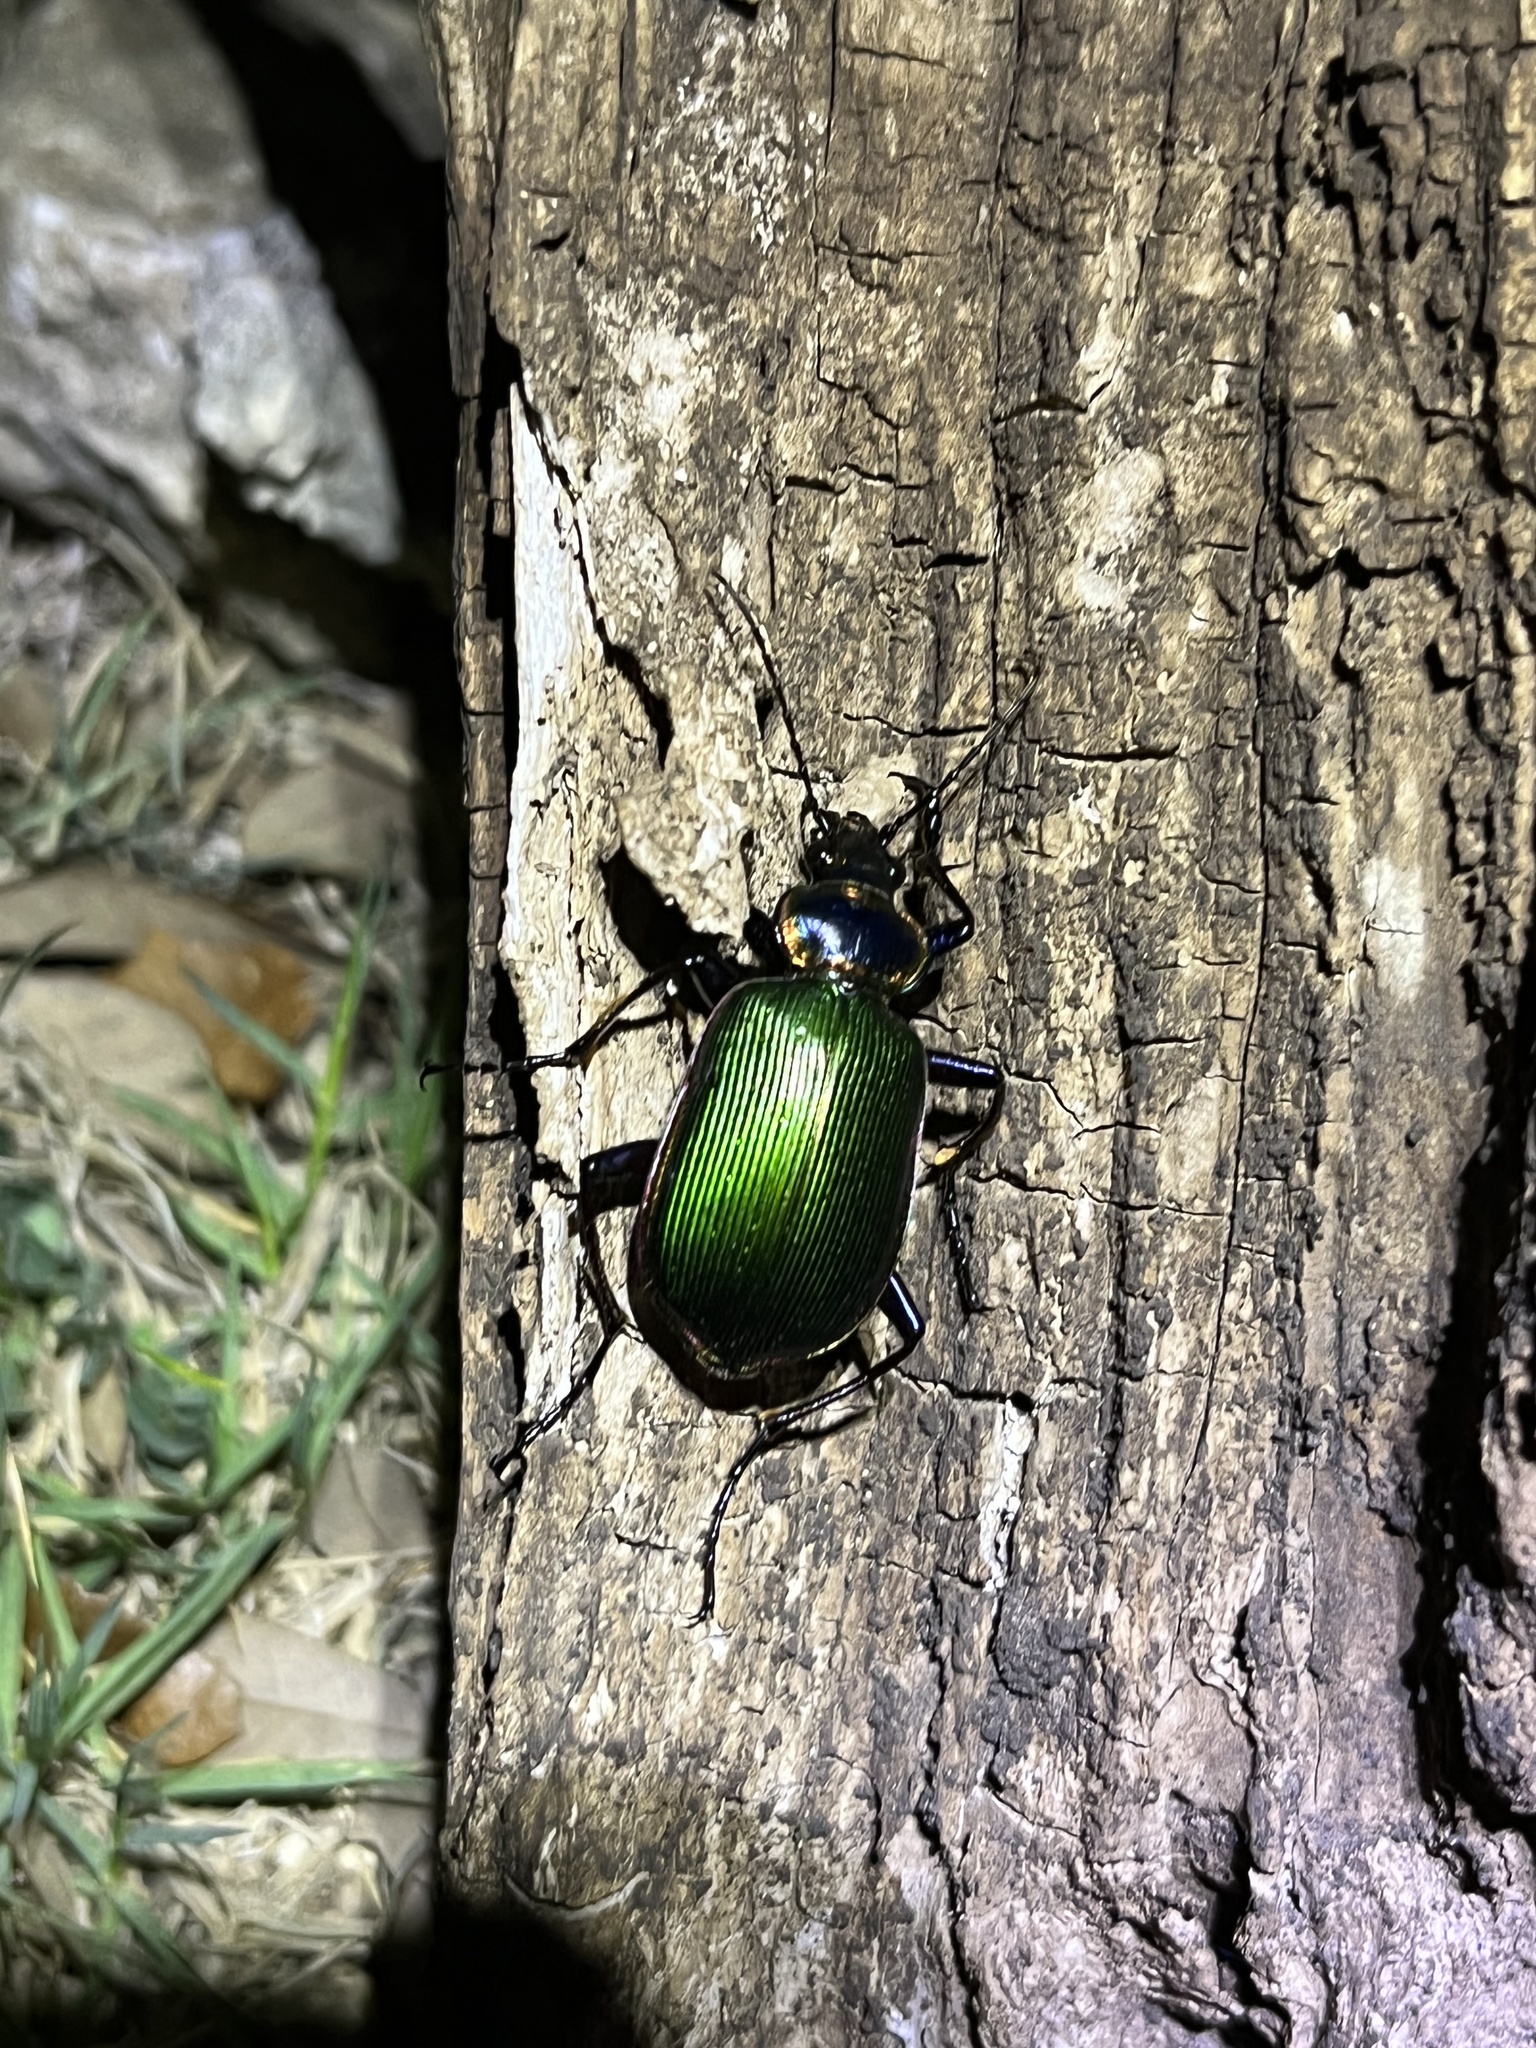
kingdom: Animalia
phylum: Arthropoda
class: Insecta
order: Coleoptera
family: Carabidae
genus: Calosoma
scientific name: Calosoma scrutator
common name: Fiery searcher beetle
